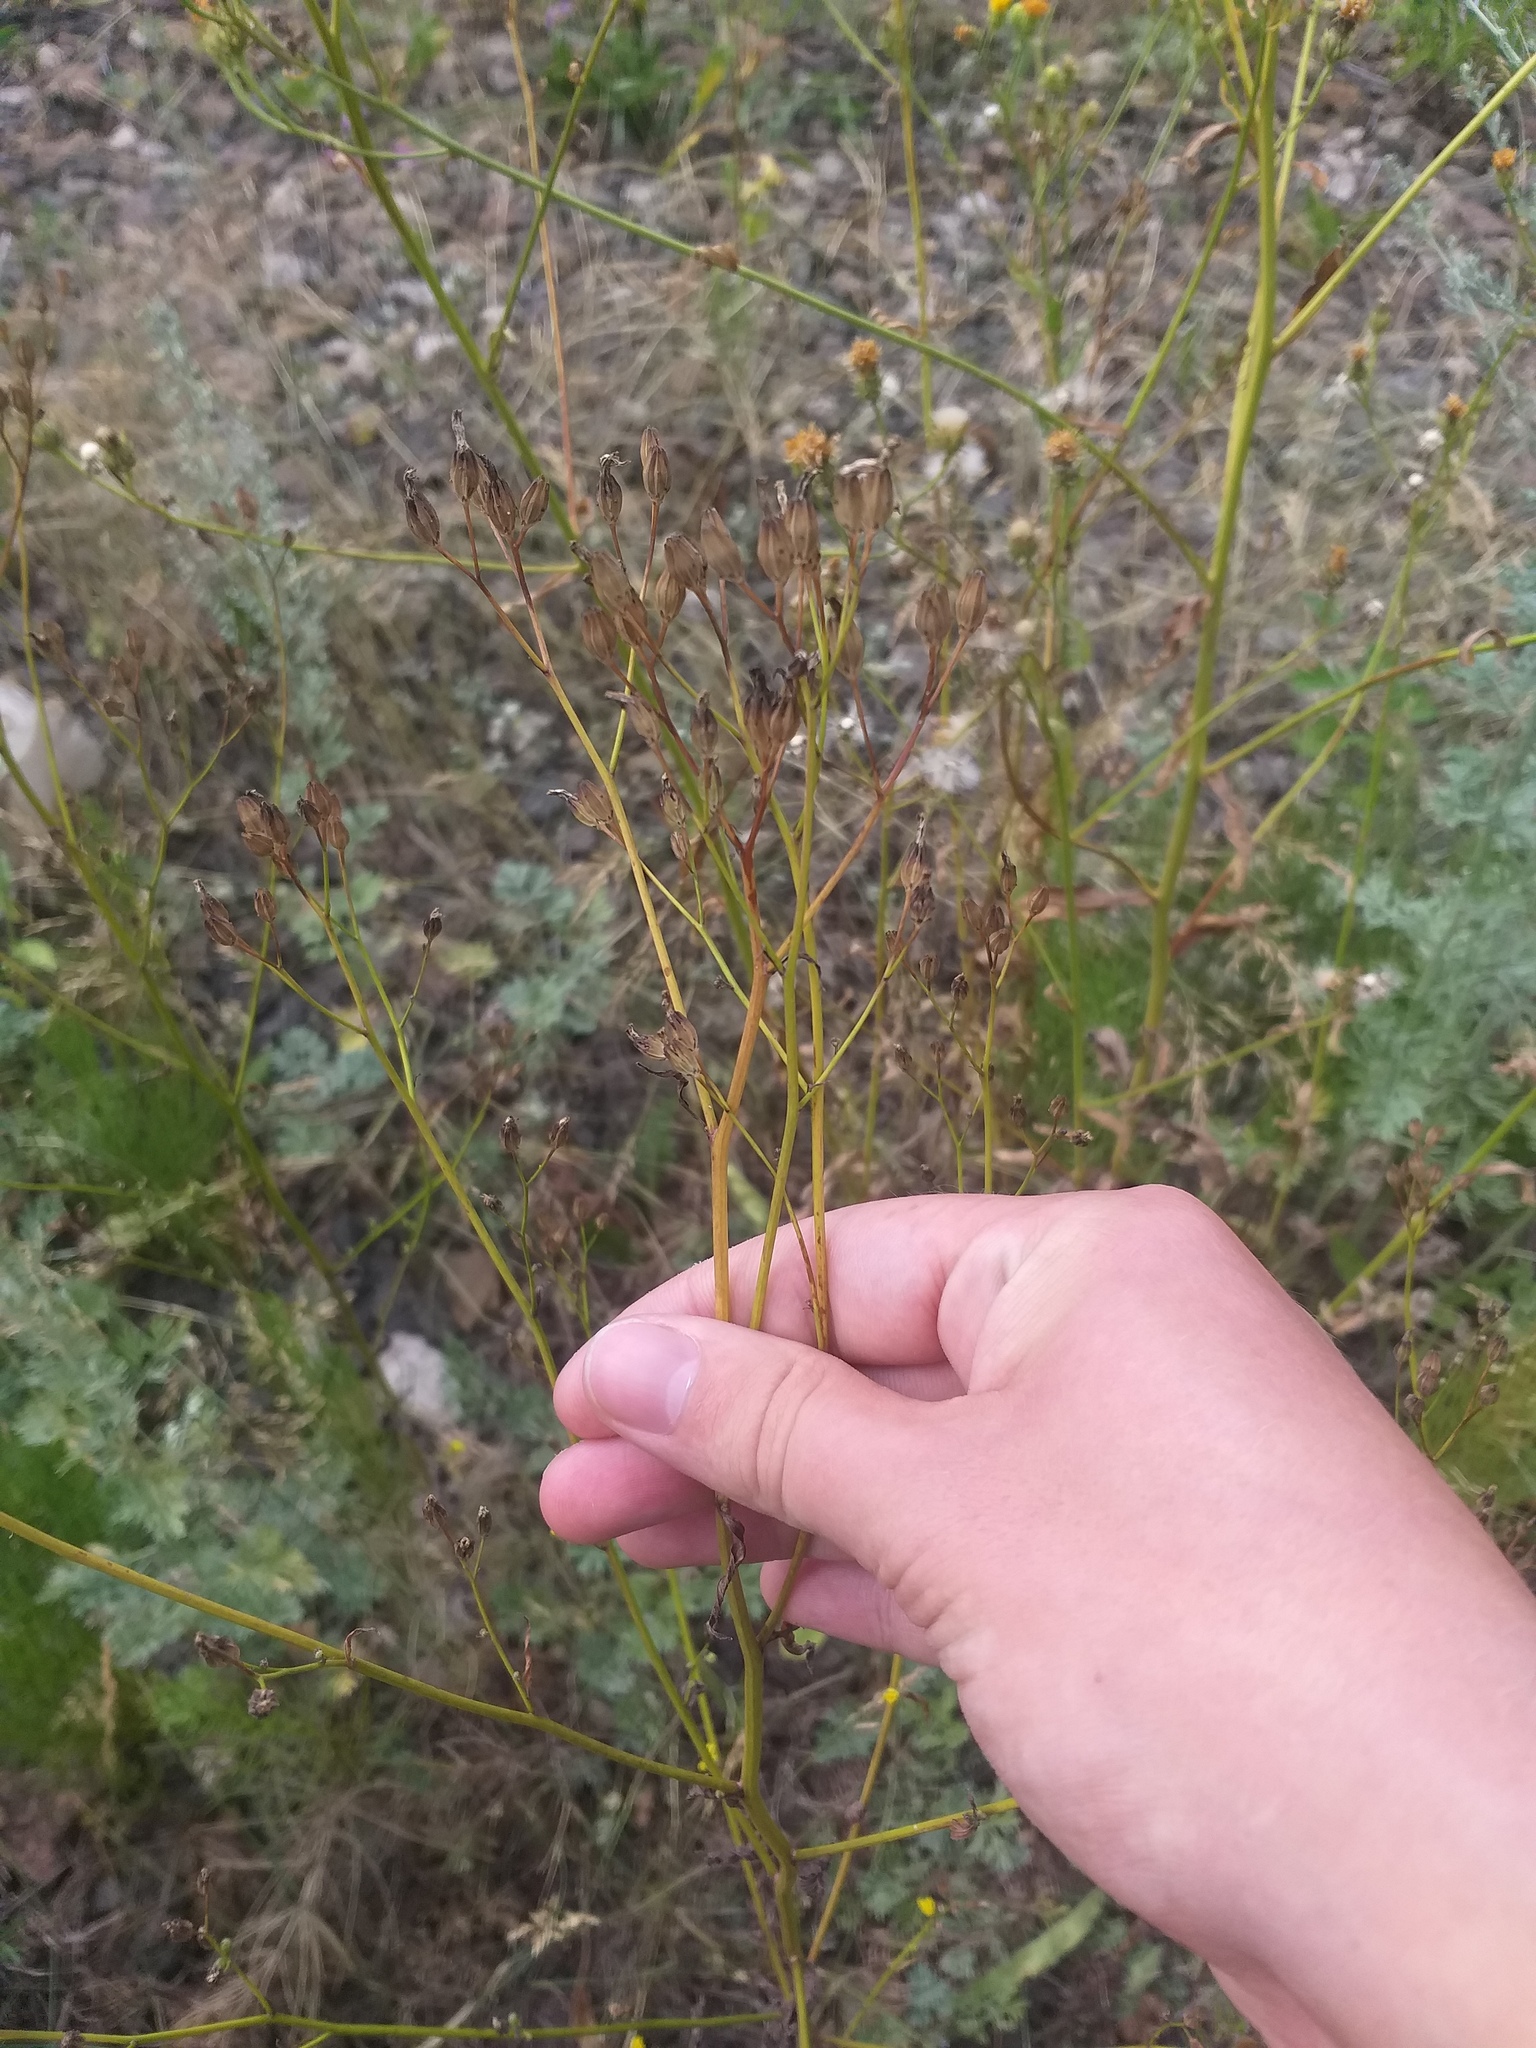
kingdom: Plantae
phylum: Tracheophyta
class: Magnoliopsida
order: Asterales
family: Asteraceae
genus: Lapsana
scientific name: Lapsana communis
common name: Nipplewort
